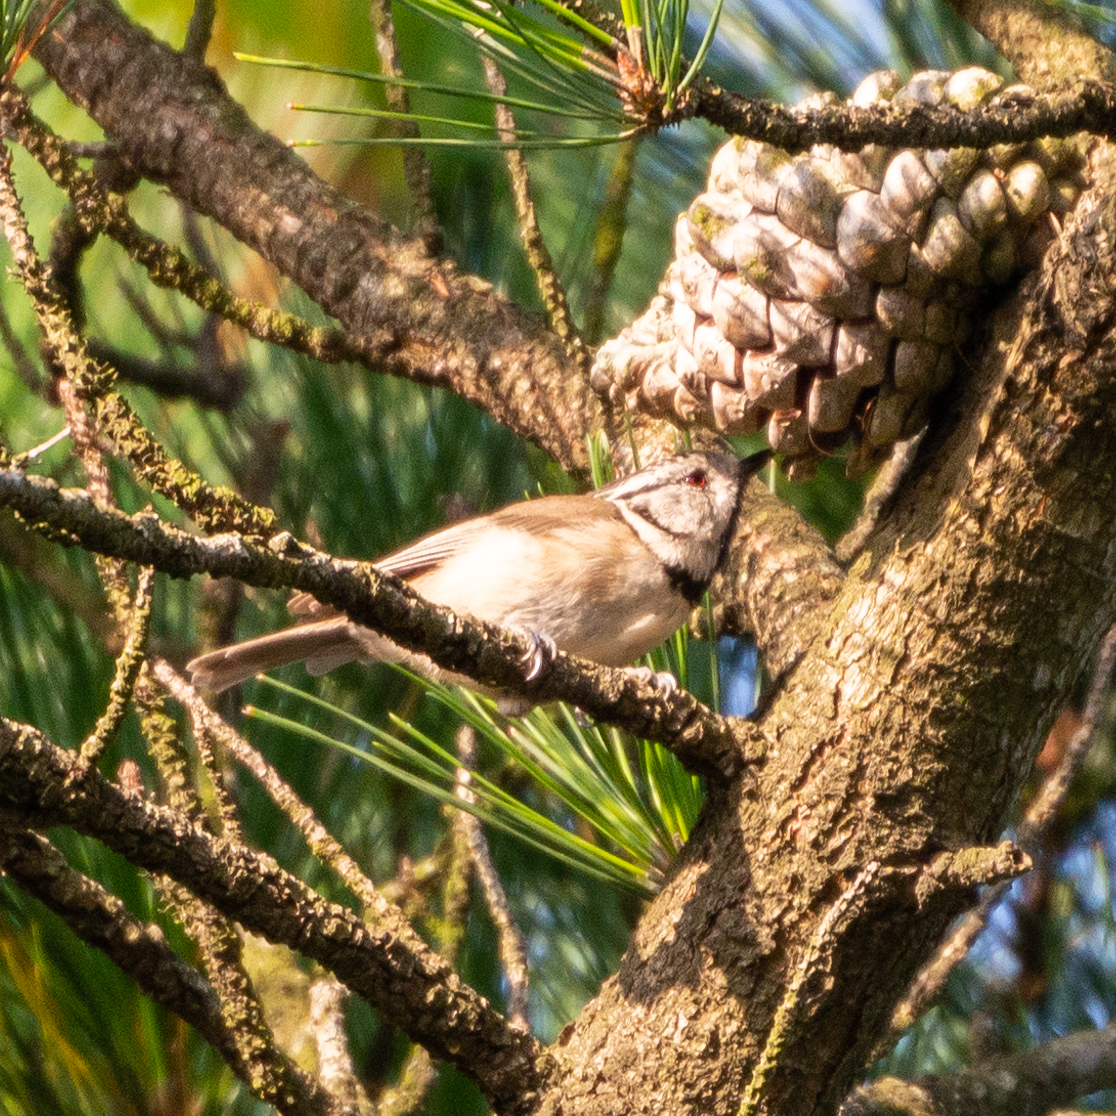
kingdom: Animalia
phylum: Chordata
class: Aves
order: Passeriformes
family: Paridae
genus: Lophophanes
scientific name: Lophophanes cristatus
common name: European crested tit
